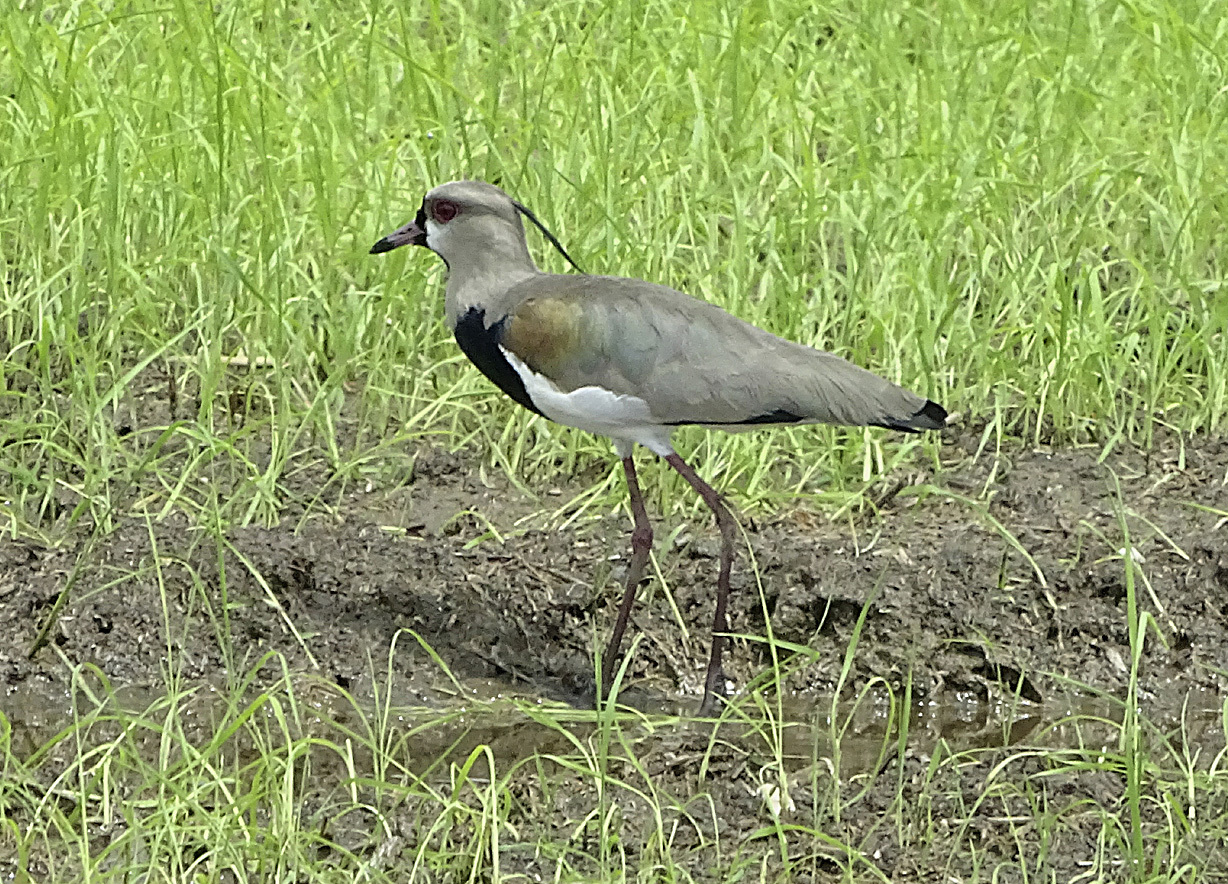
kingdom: Animalia
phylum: Chordata
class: Aves
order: Charadriiformes
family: Charadriidae
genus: Vanellus
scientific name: Vanellus chilensis
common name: Southern lapwing
